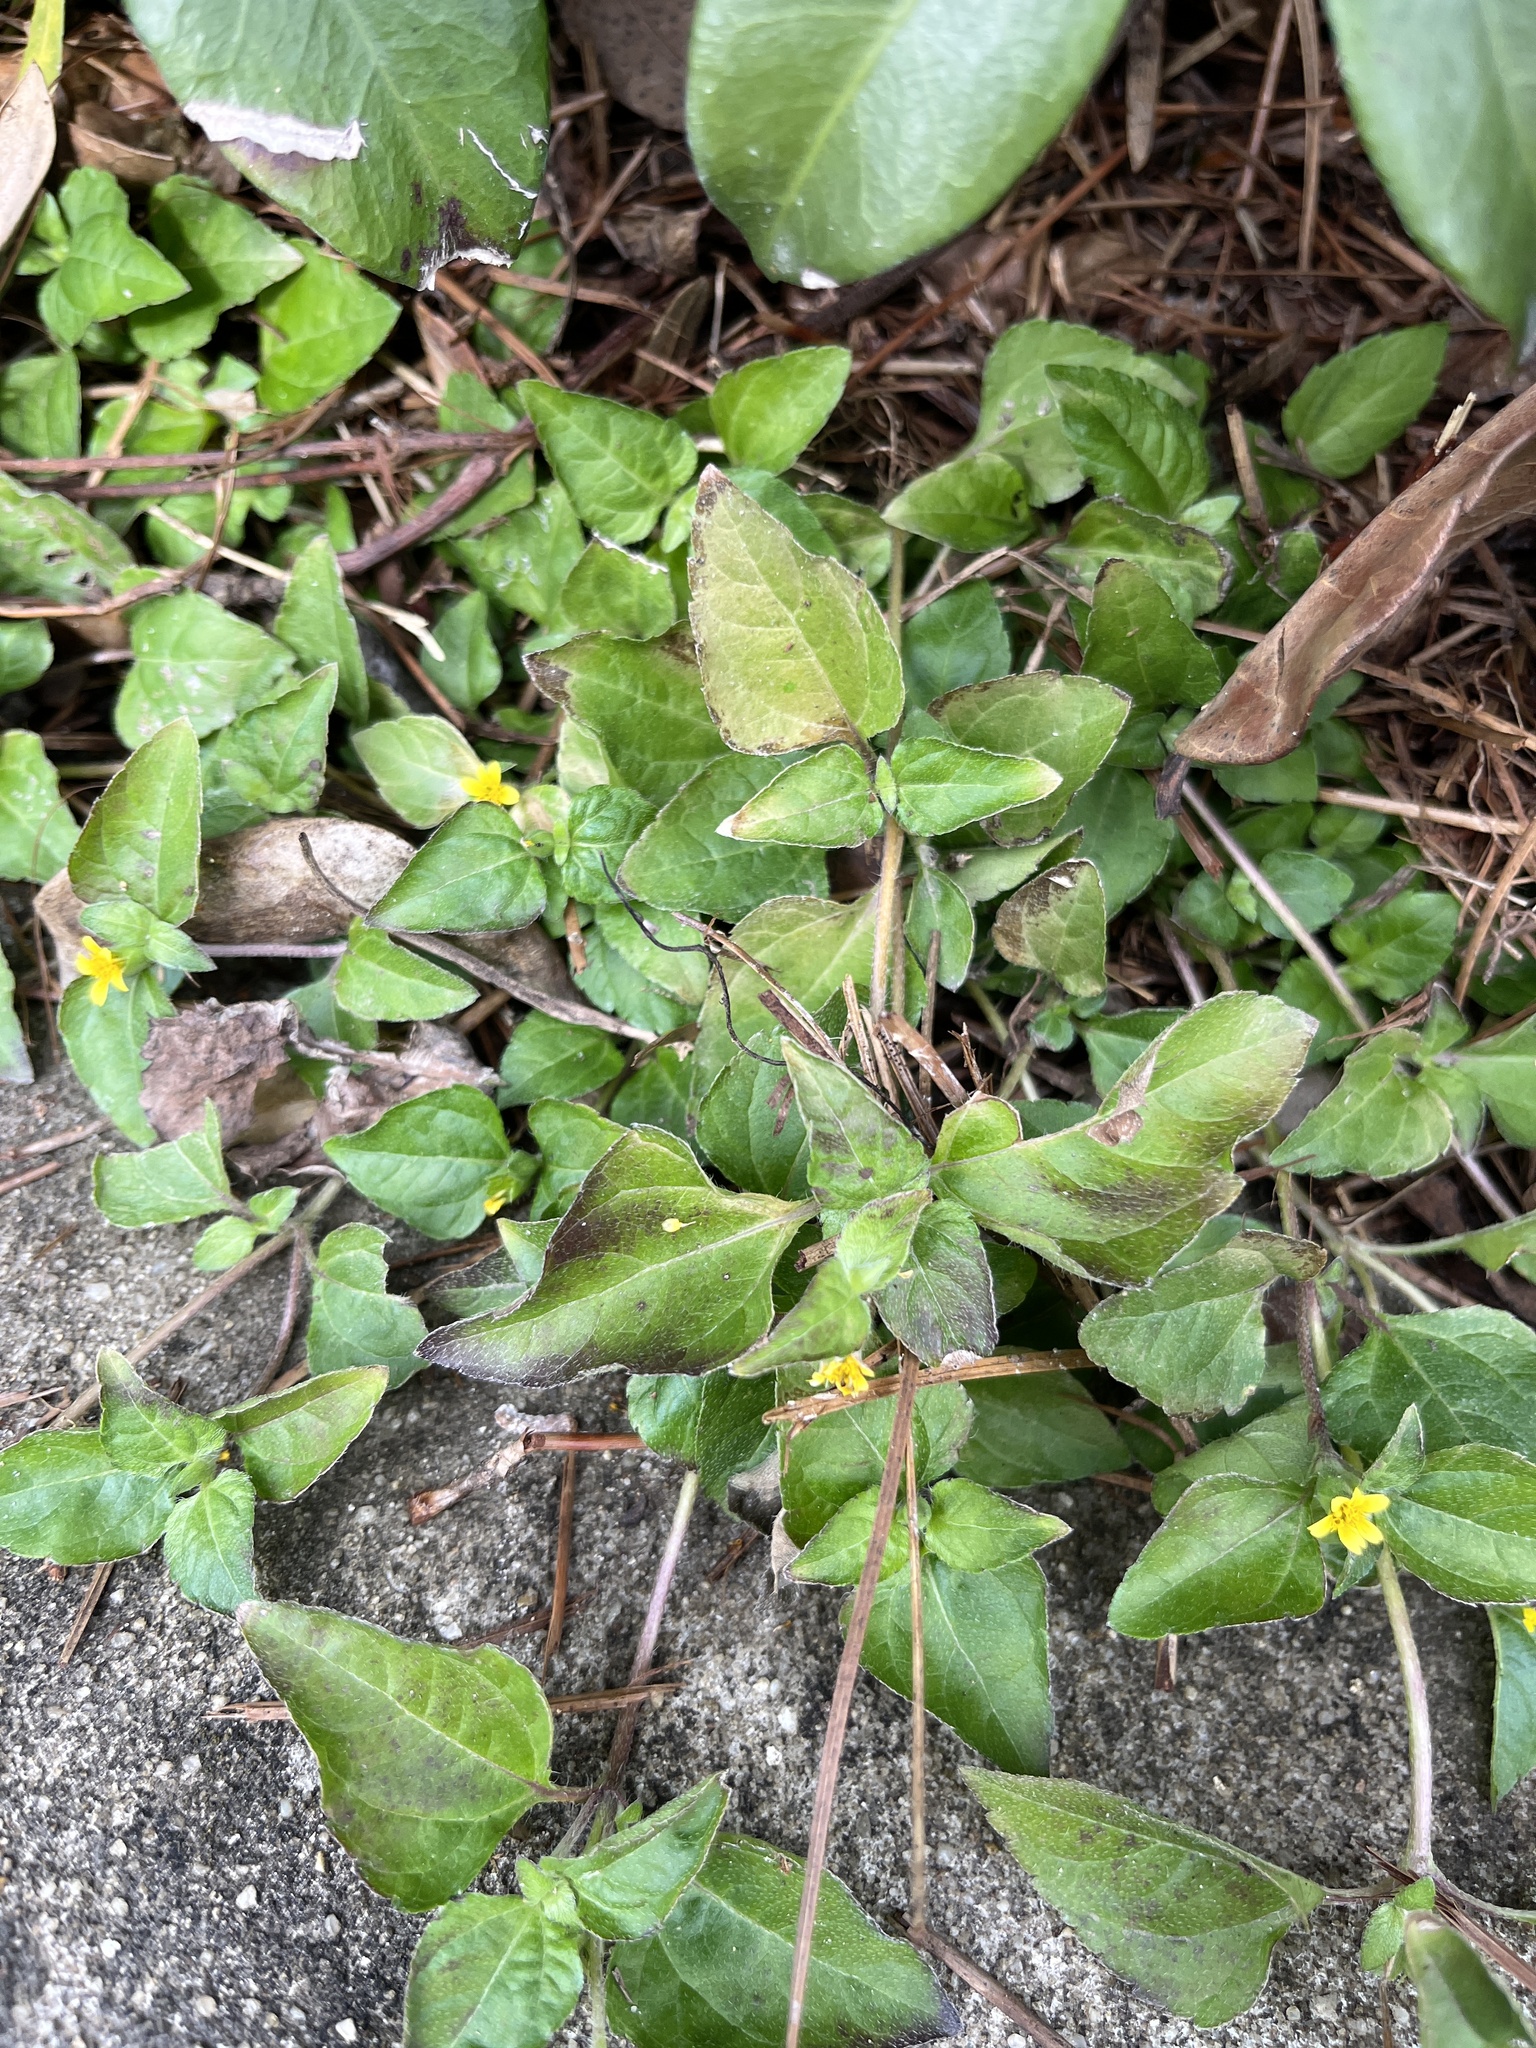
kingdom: Plantae
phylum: Tracheophyta
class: Magnoliopsida
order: Asterales
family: Asteraceae
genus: Calyptocarpus
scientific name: Calyptocarpus vialis
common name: Straggler daisy
